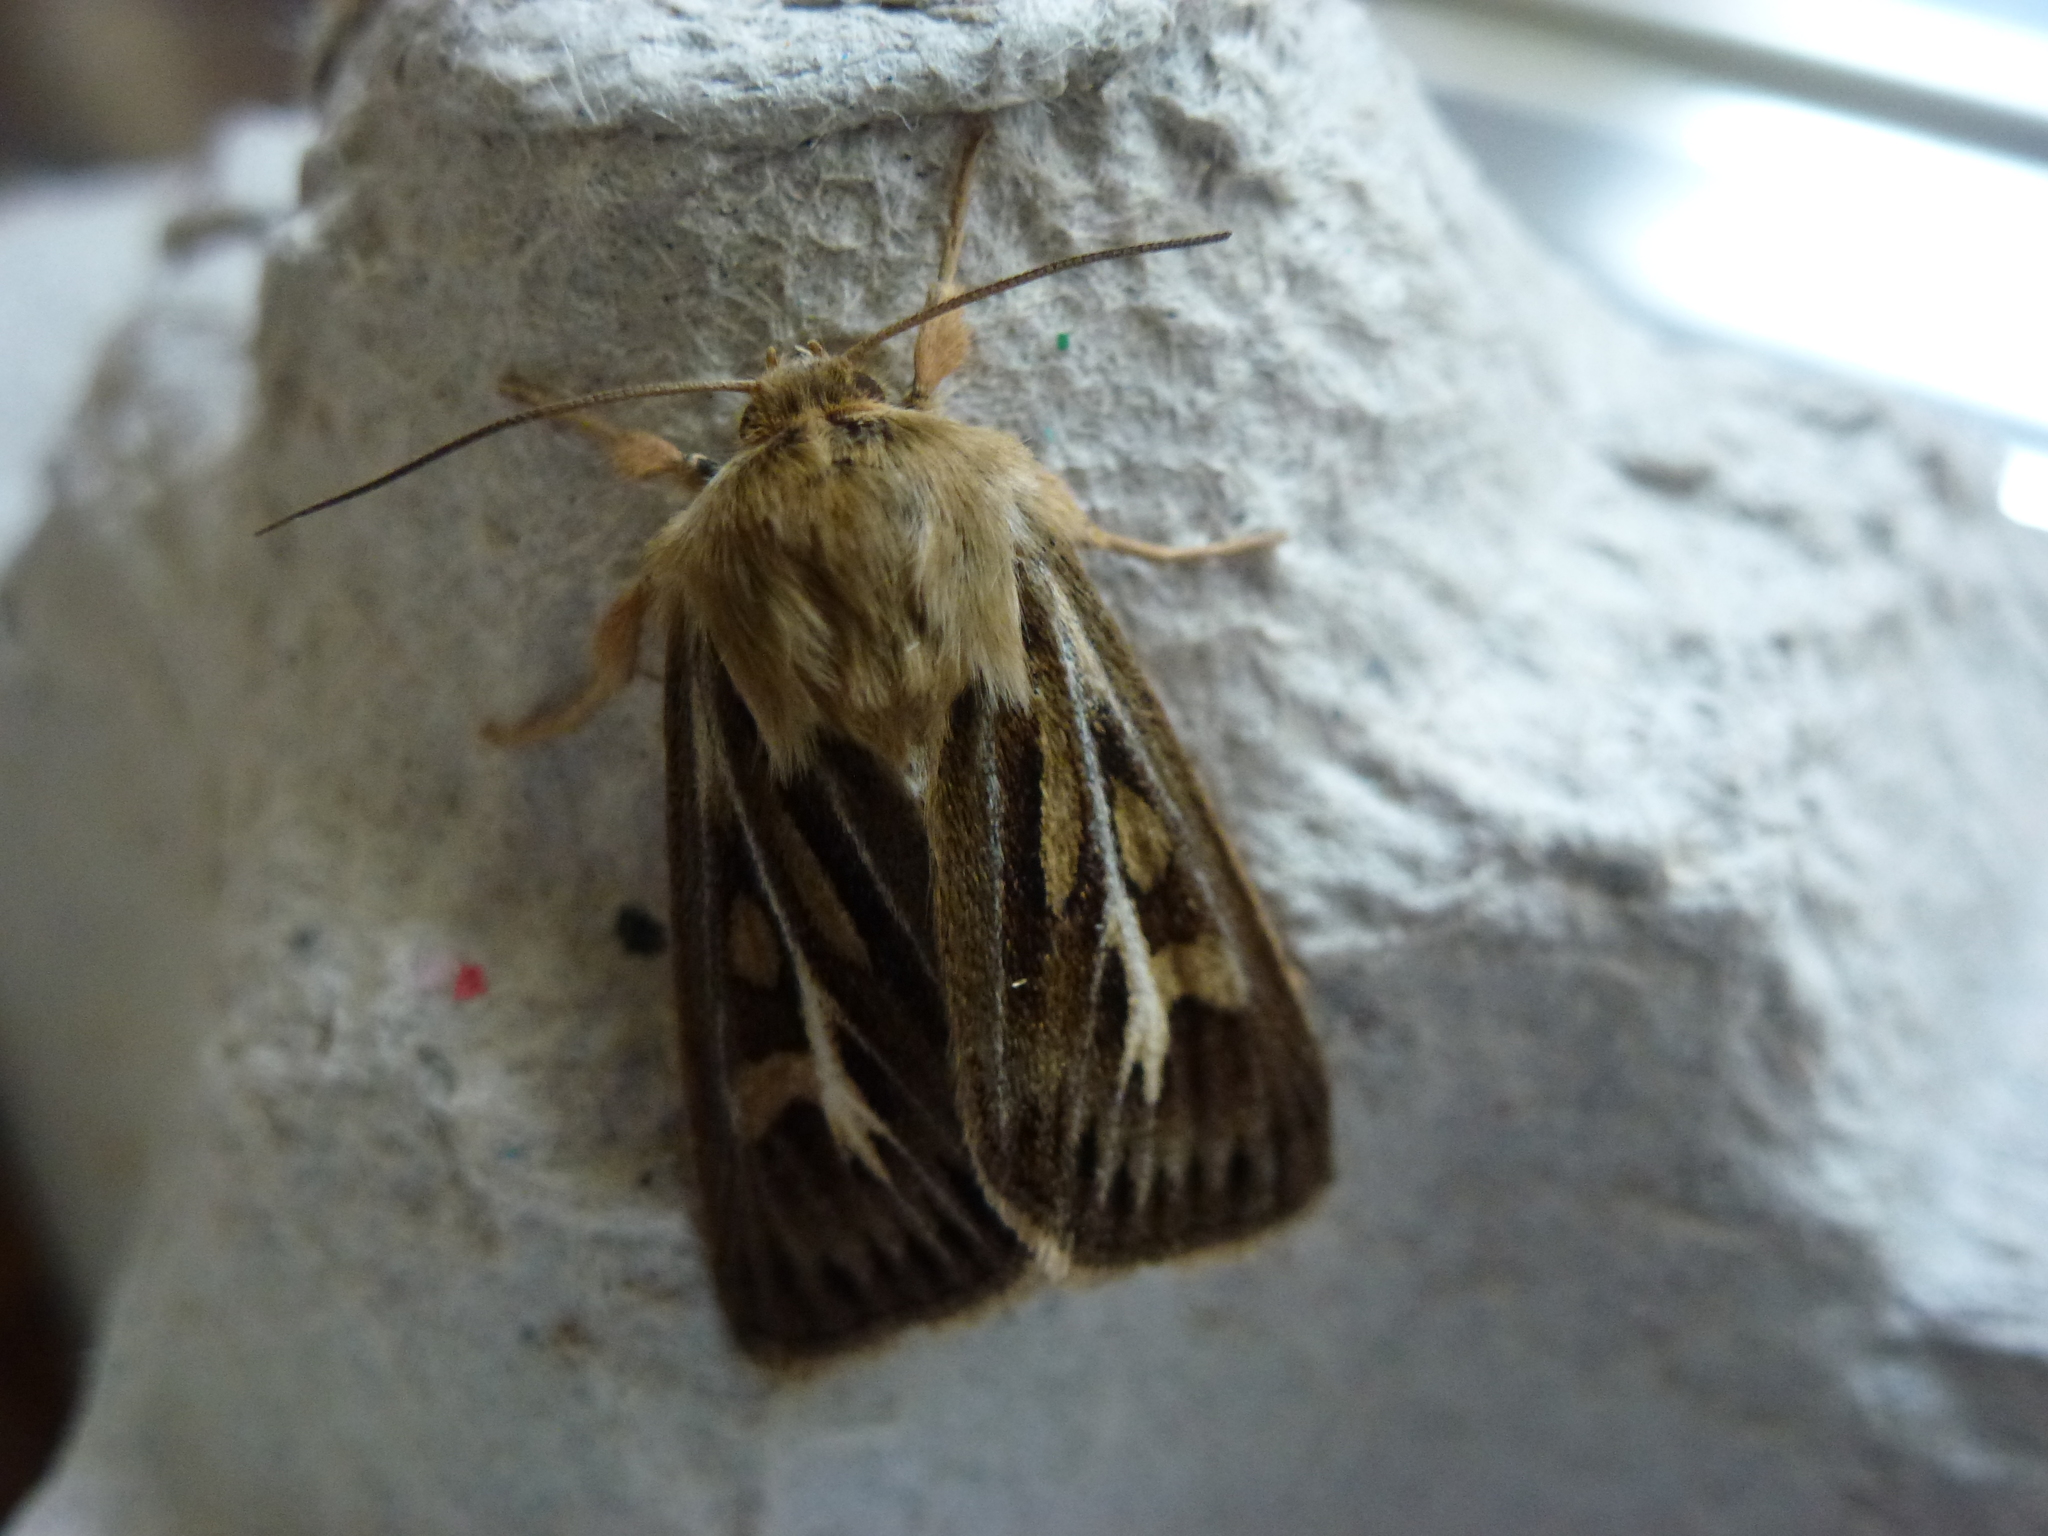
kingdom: Animalia
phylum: Arthropoda
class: Insecta
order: Lepidoptera
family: Noctuidae
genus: Cerapteryx
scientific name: Cerapteryx graminis
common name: Antler moth
